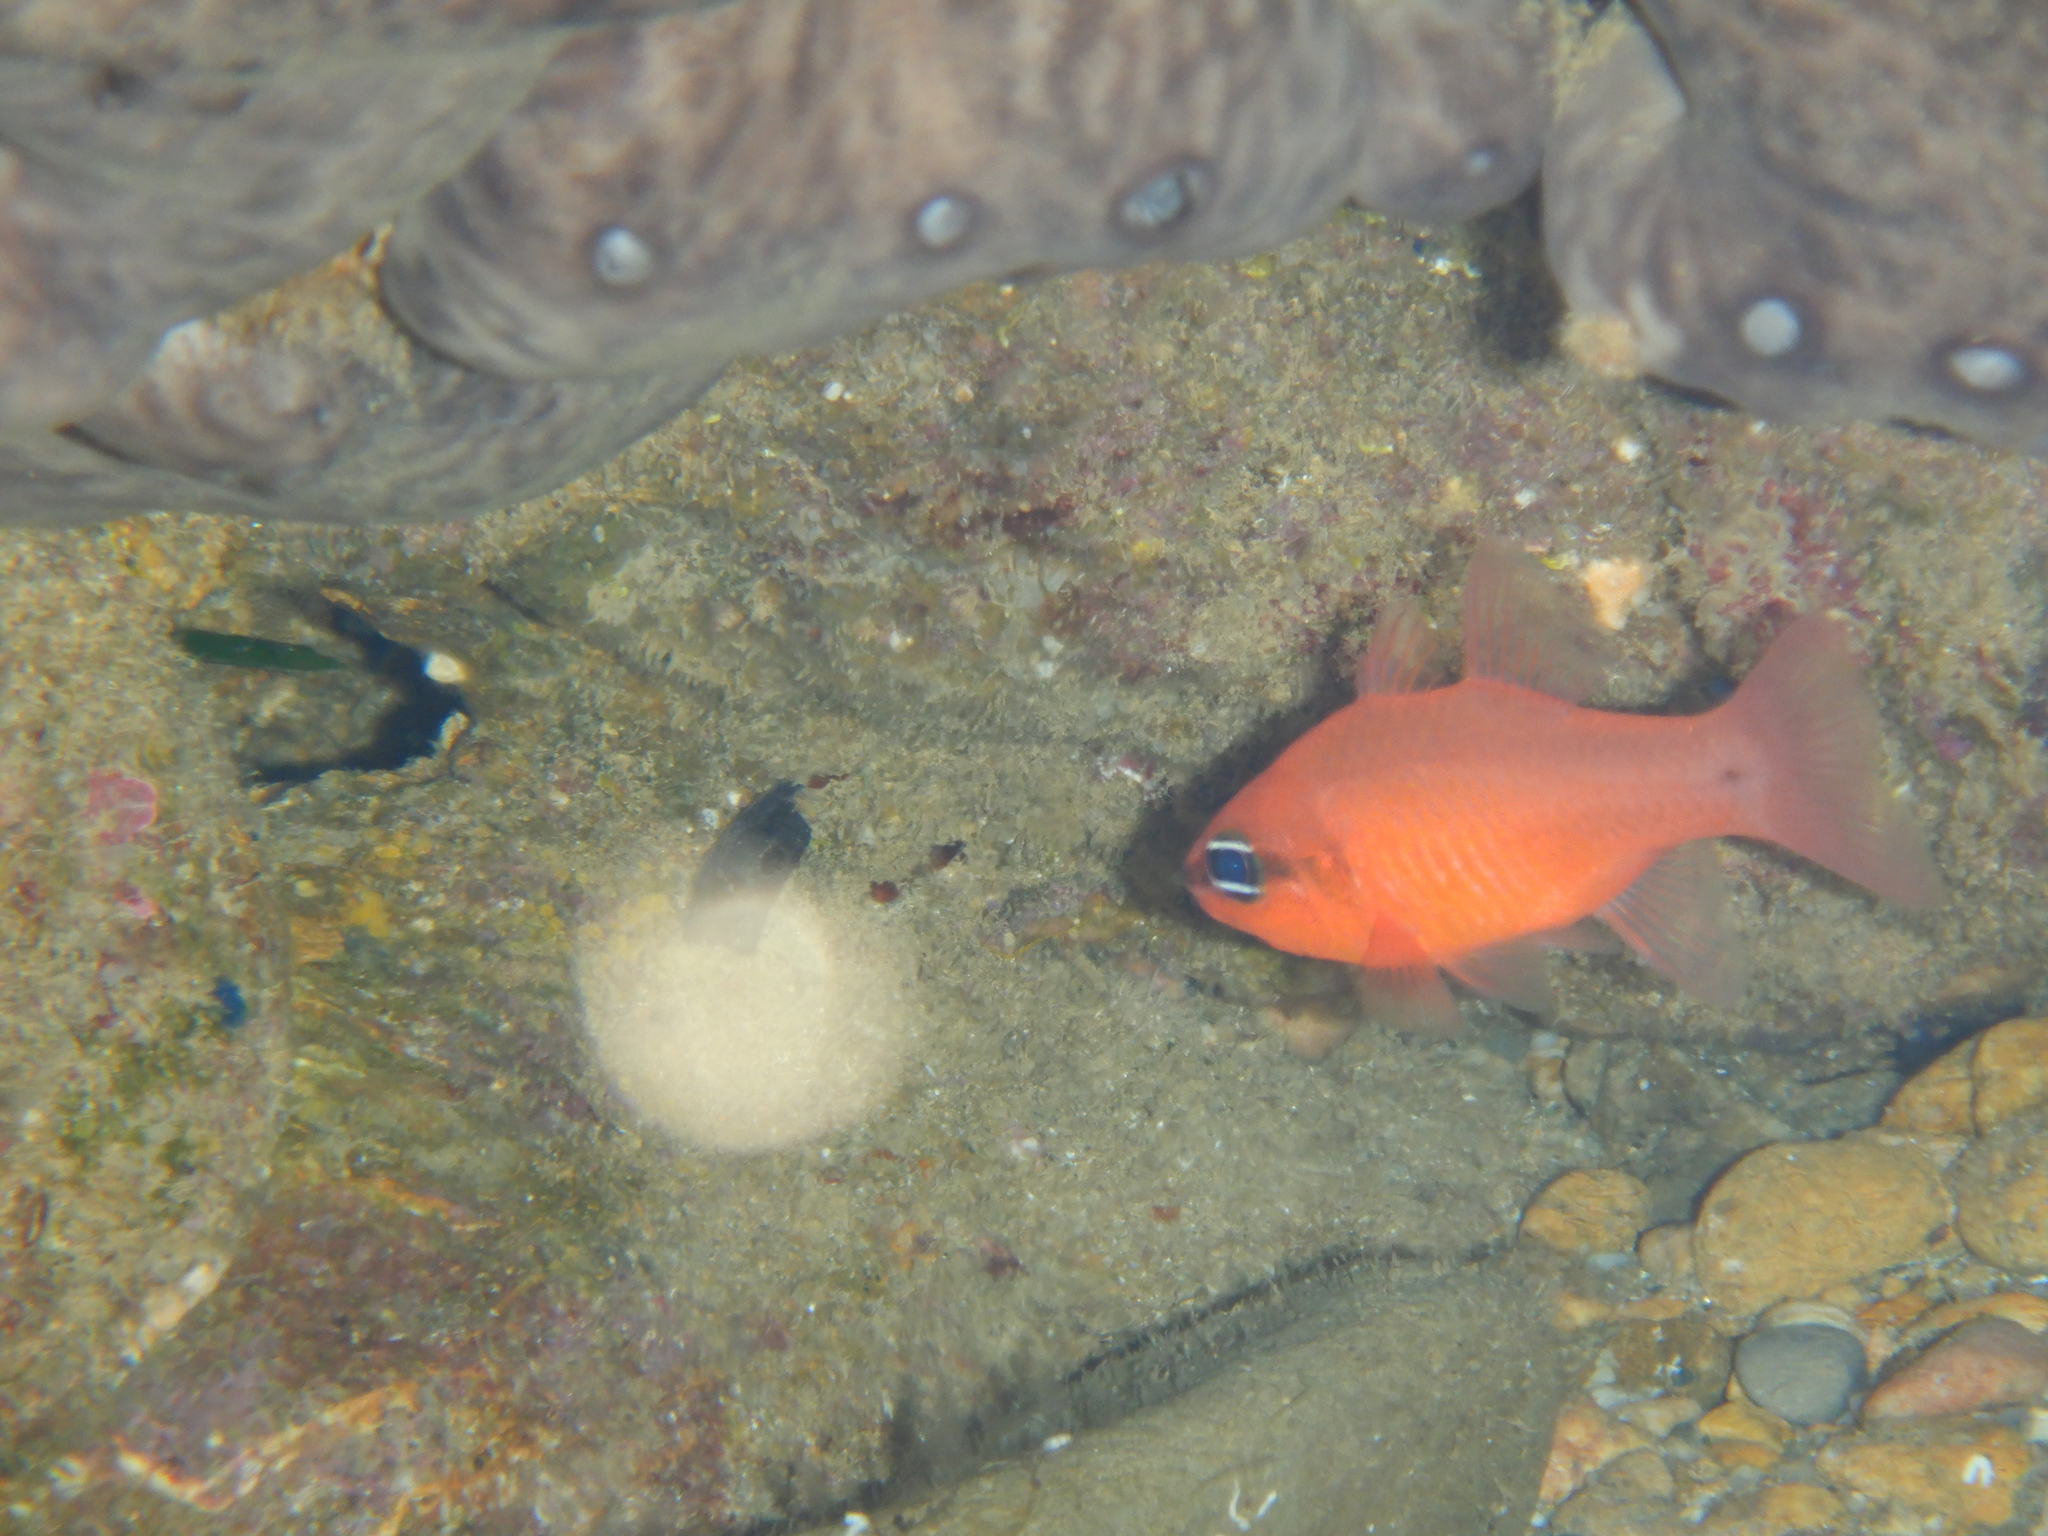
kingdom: Animalia
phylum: Chordata
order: Perciformes
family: Apogonidae
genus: Apogon
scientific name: Apogon imberbis
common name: Cardinal fish
